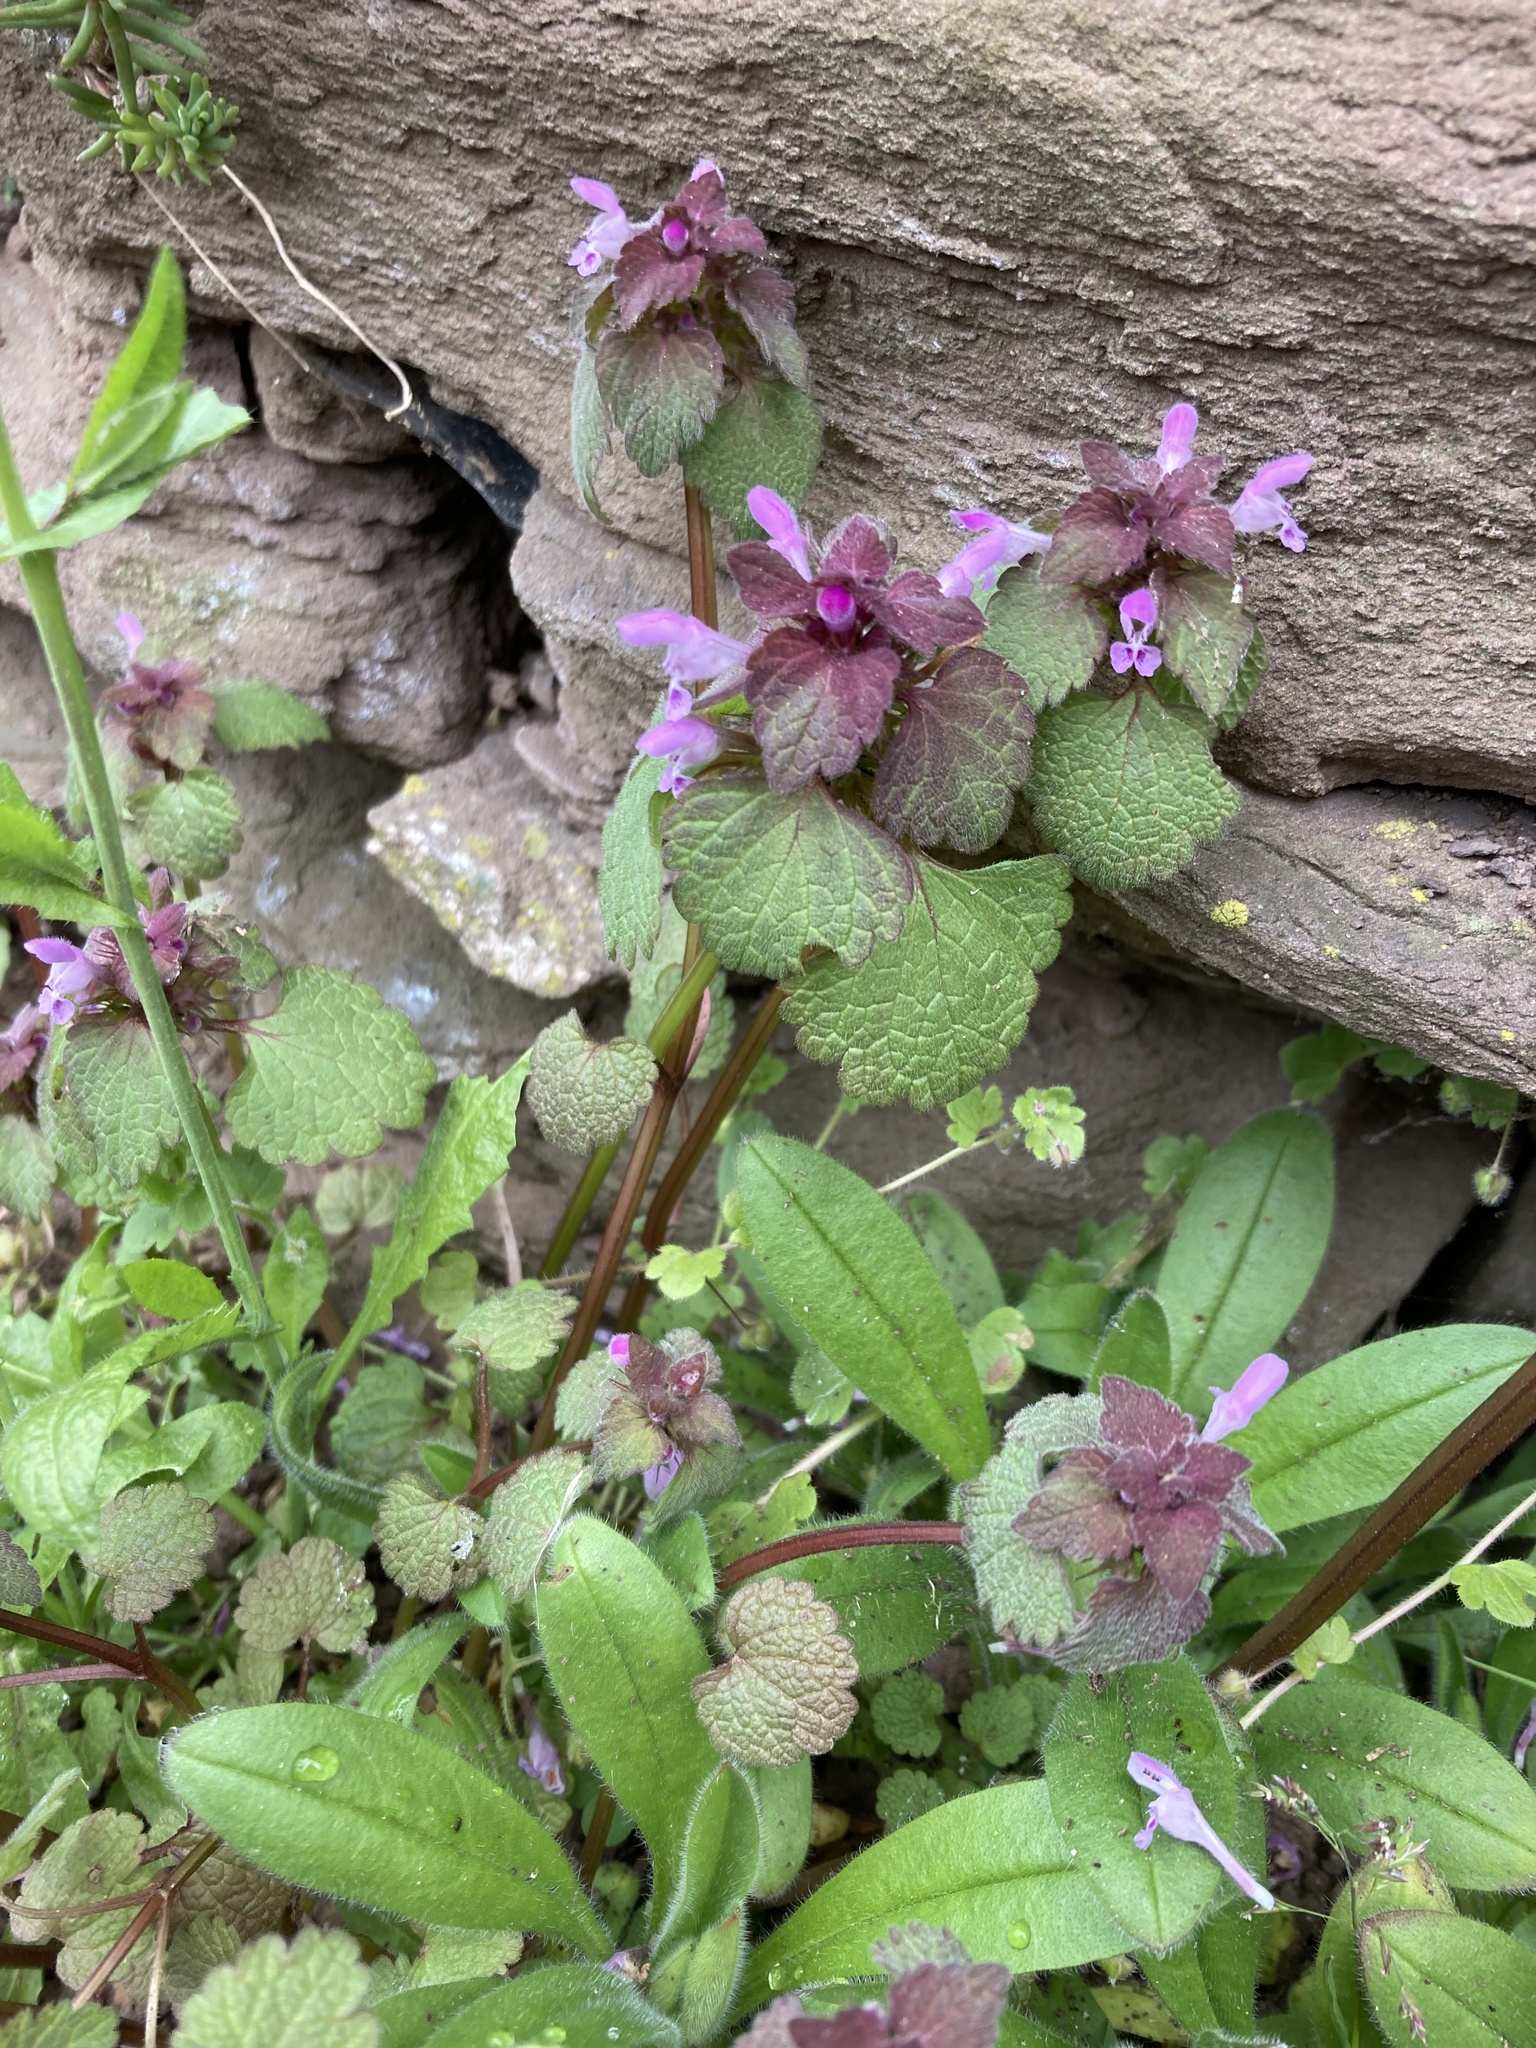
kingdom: Plantae
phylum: Tracheophyta
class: Magnoliopsida
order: Lamiales
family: Lamiaceae
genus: Lamium
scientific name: Lamium purpureum
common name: Red dead-nettle
